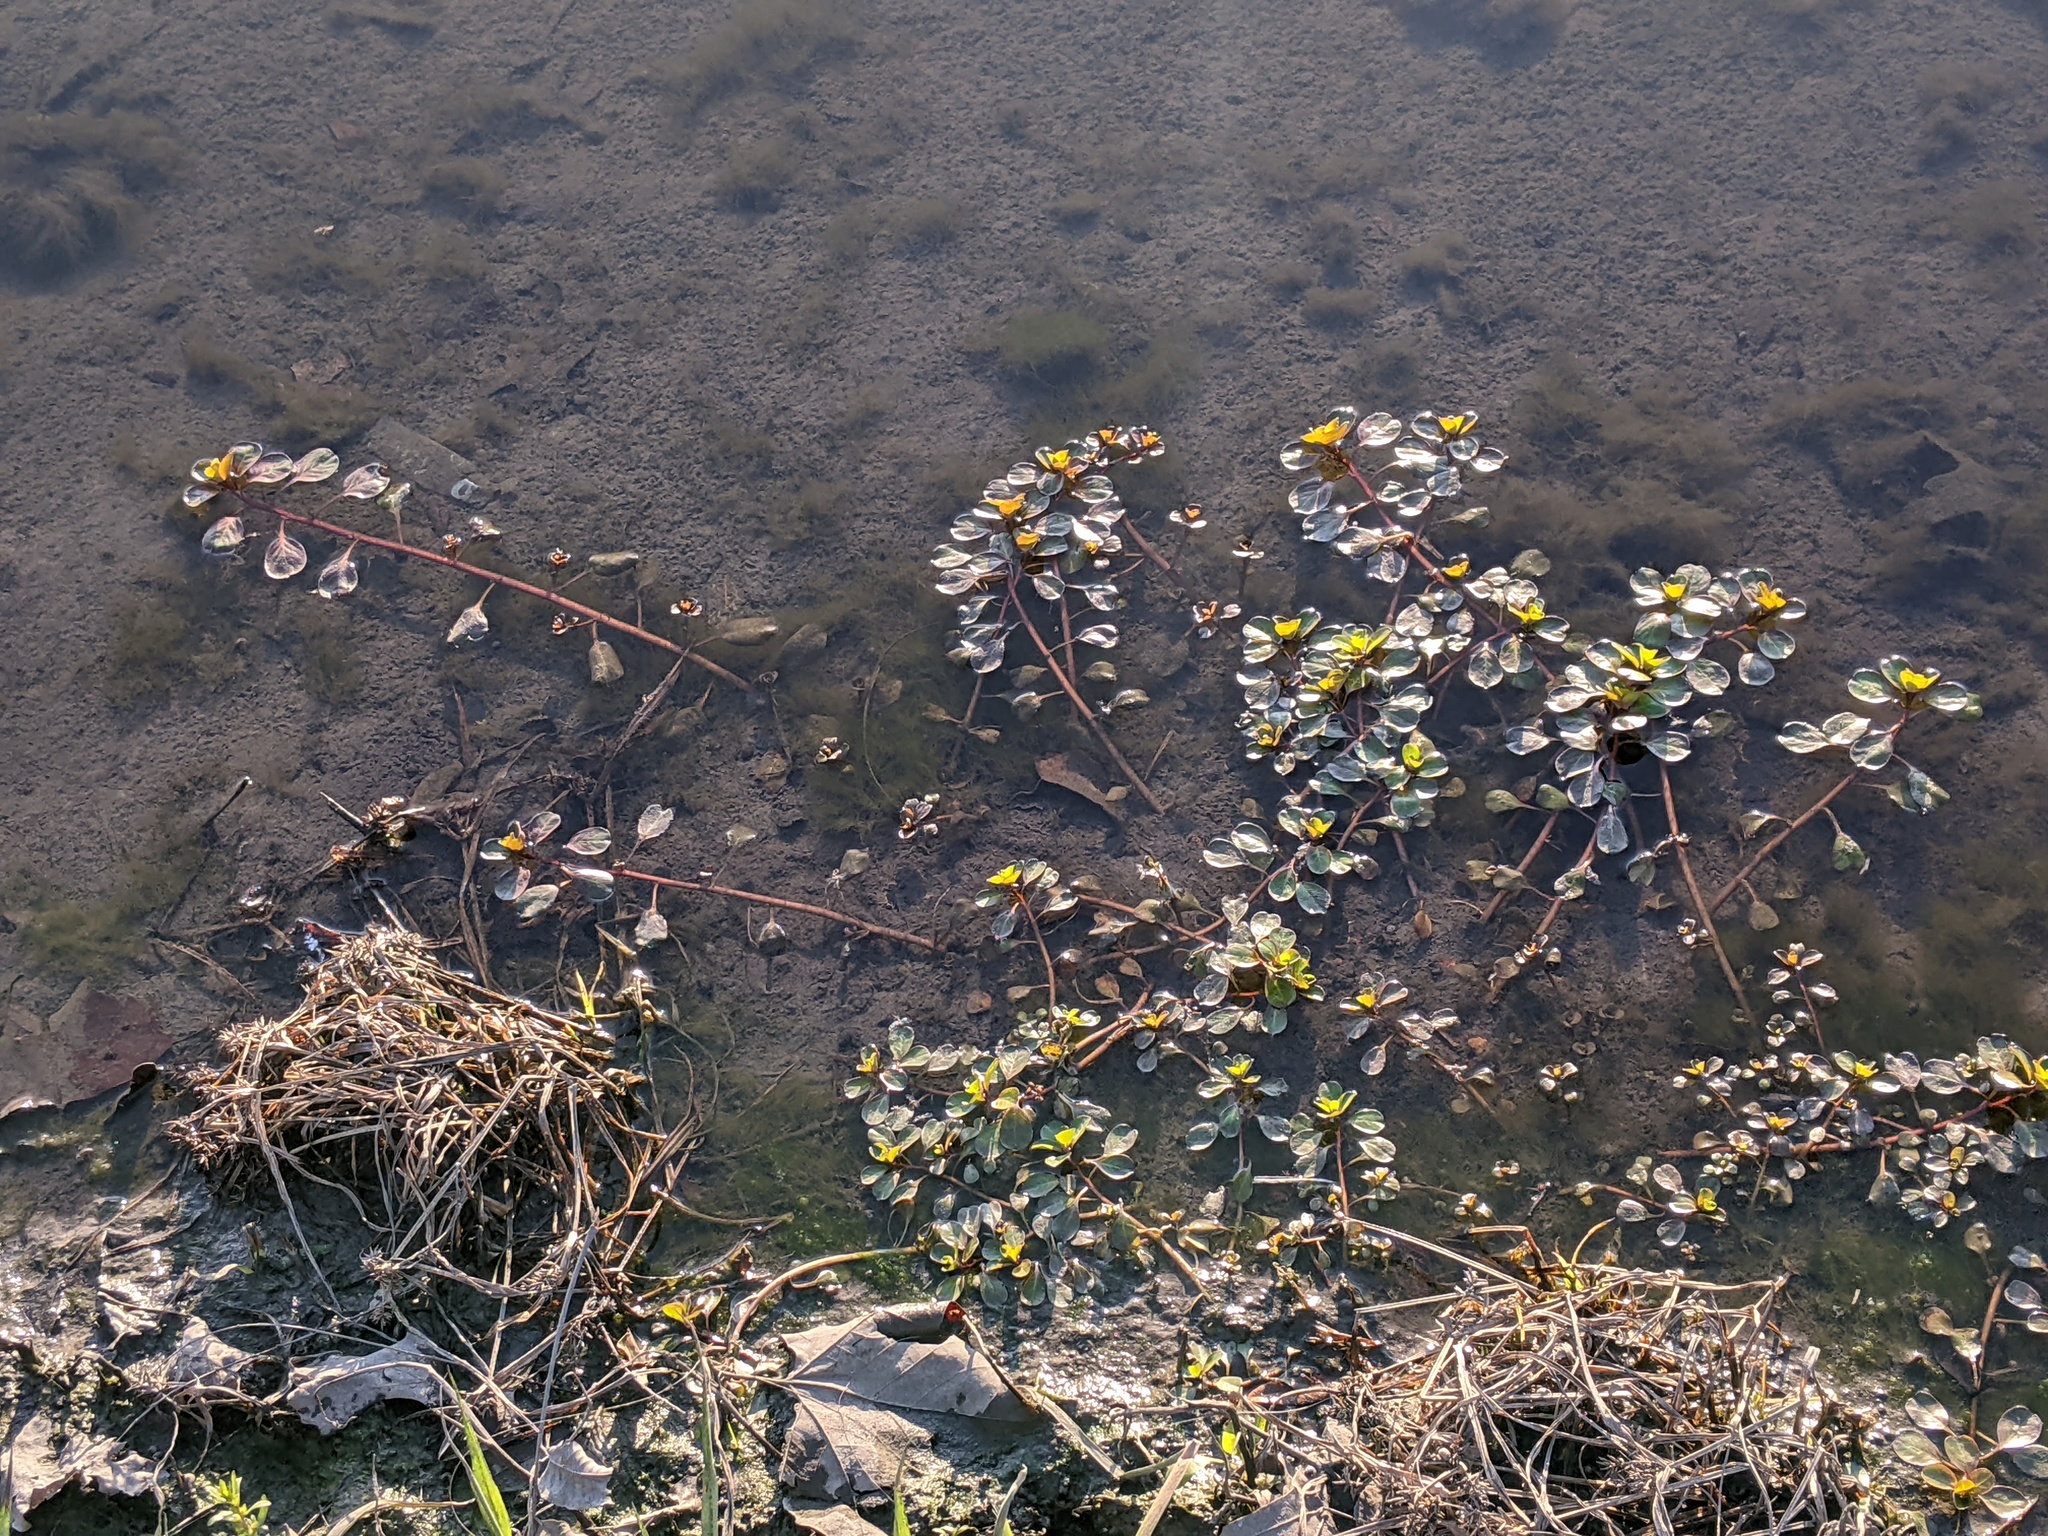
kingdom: Plantae
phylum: Tracheophyta
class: Magnoliopsida
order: Myrtales
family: Onagraceae
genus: Ludwigia
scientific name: Ludwigia peploides
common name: Floating primrose-willow
